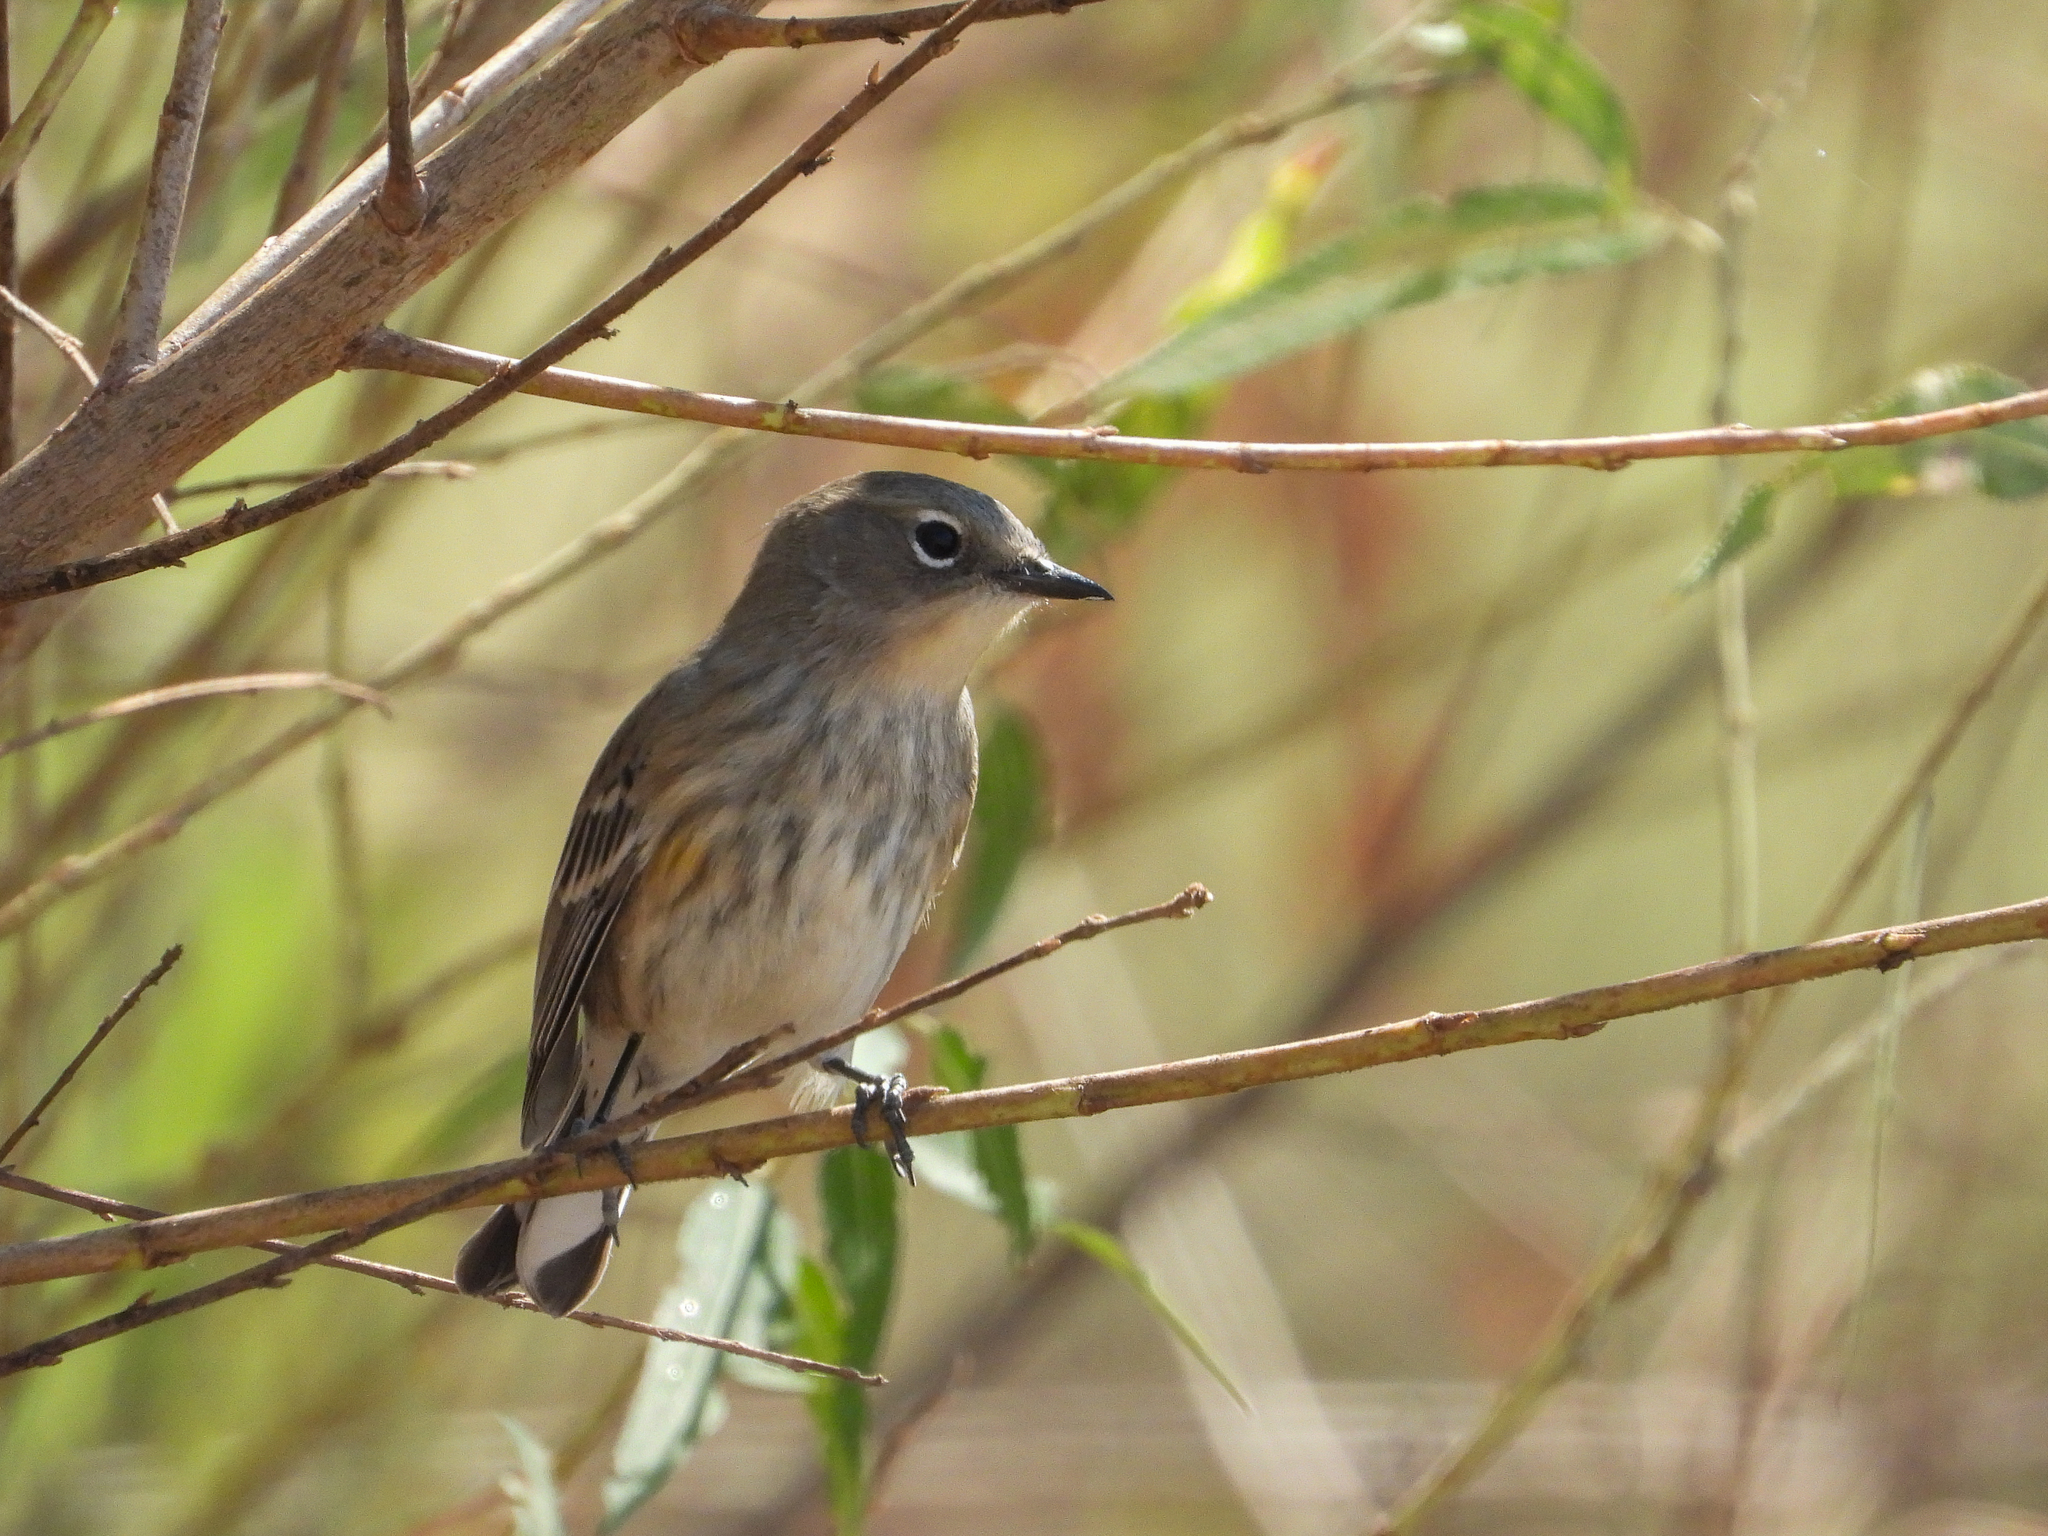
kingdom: Animalia
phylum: Chordata
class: Aves
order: Passeriformes
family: Parulidae
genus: Setophaga
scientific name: Setophaga coronata
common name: Myrtle warbler
